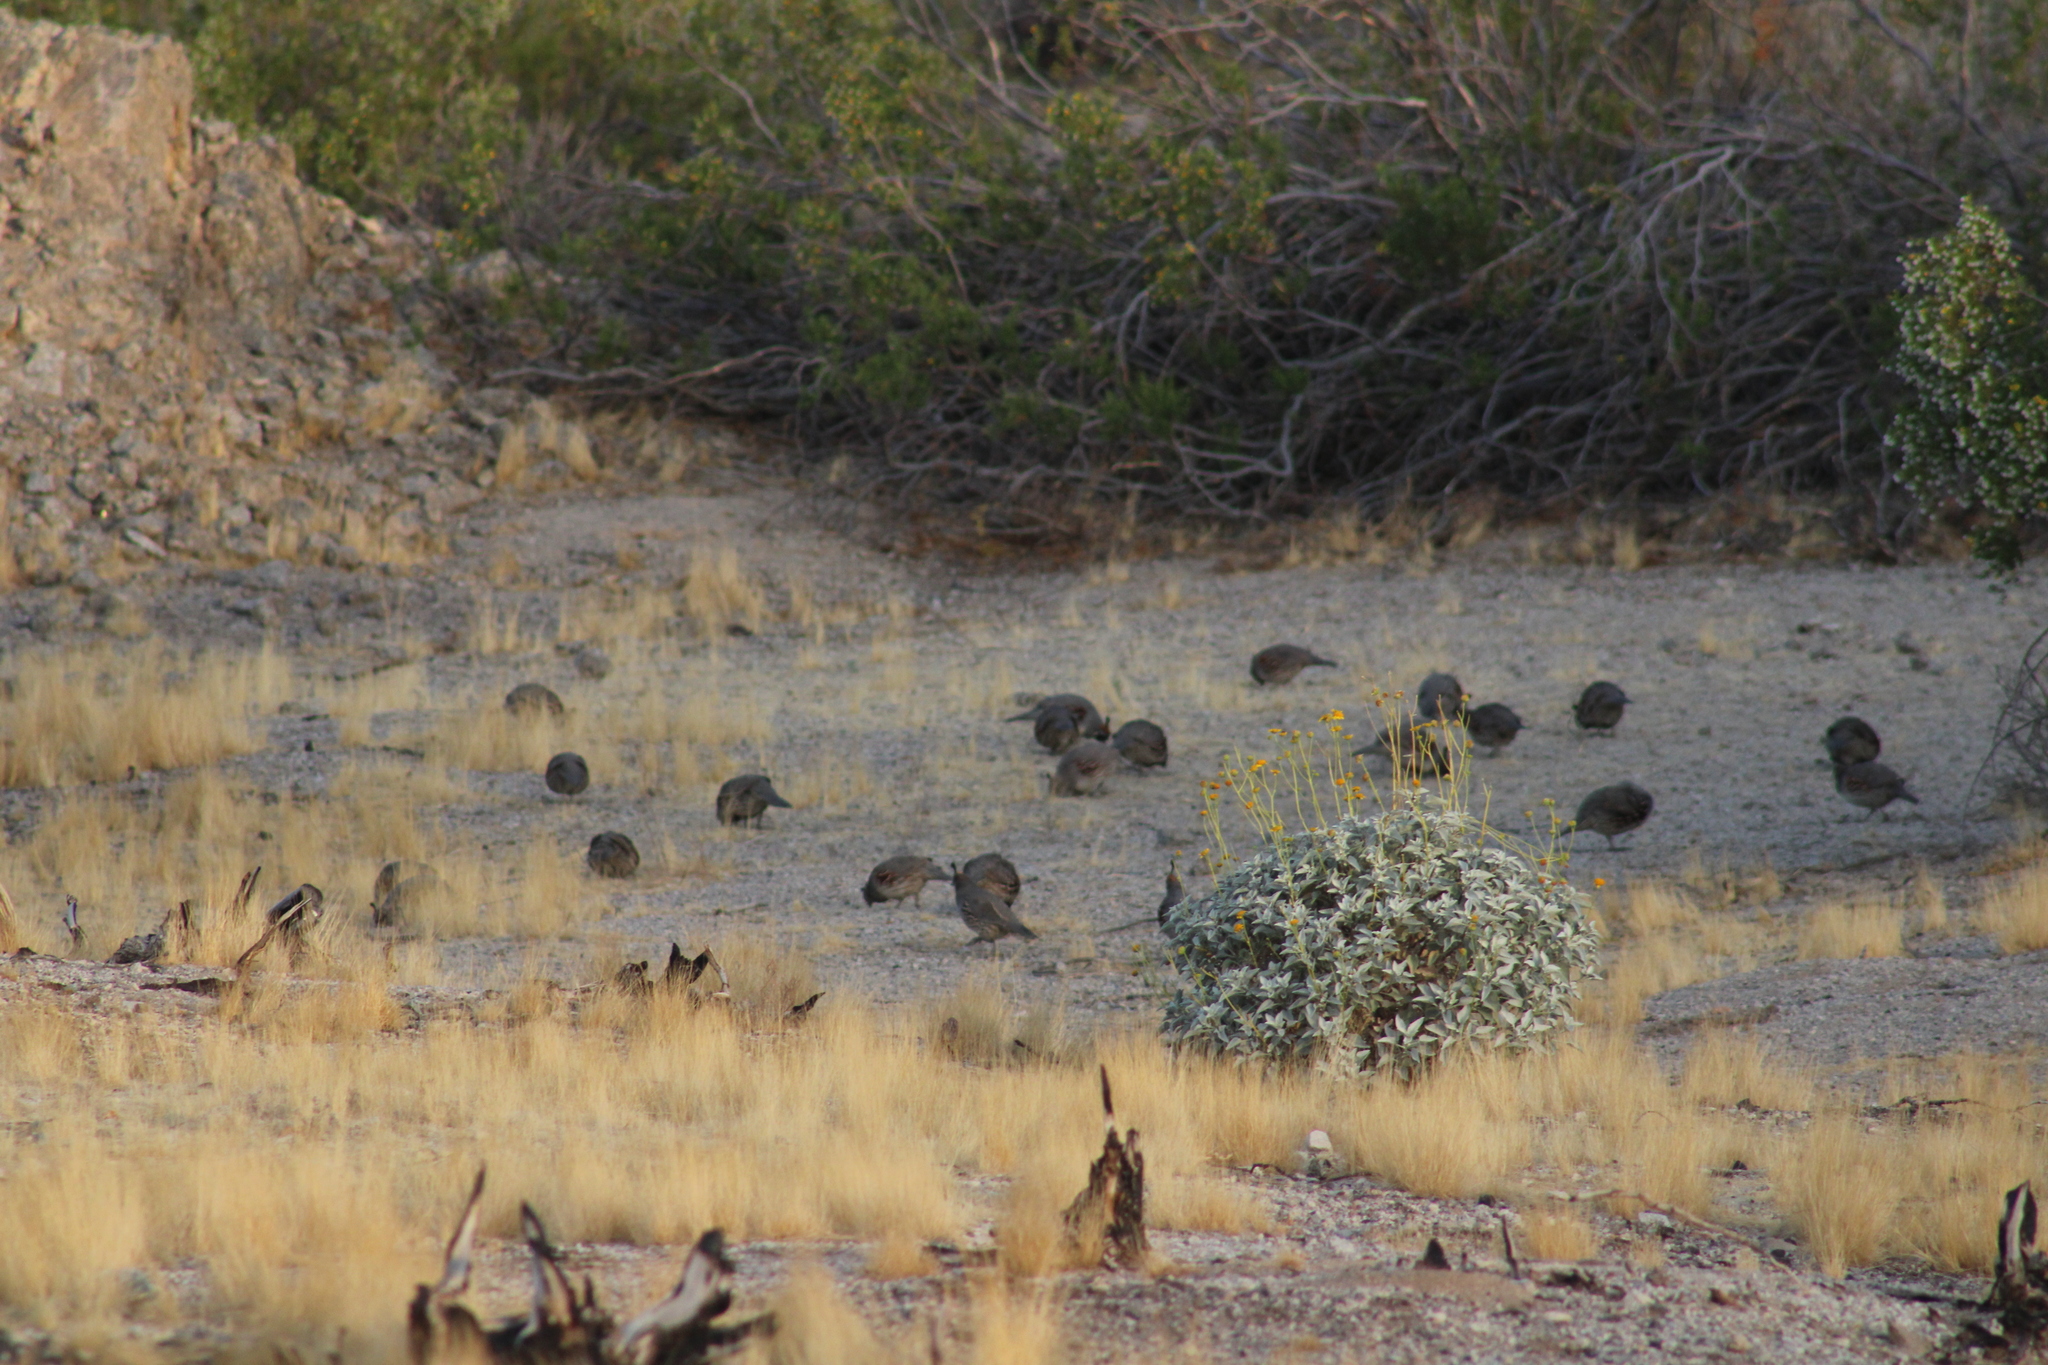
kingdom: Animalia
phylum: Chordata
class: Aves
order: Galliformes
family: Odontophoridae
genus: Callipepla
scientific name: Callipepla gambelii
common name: Gambel's quail
